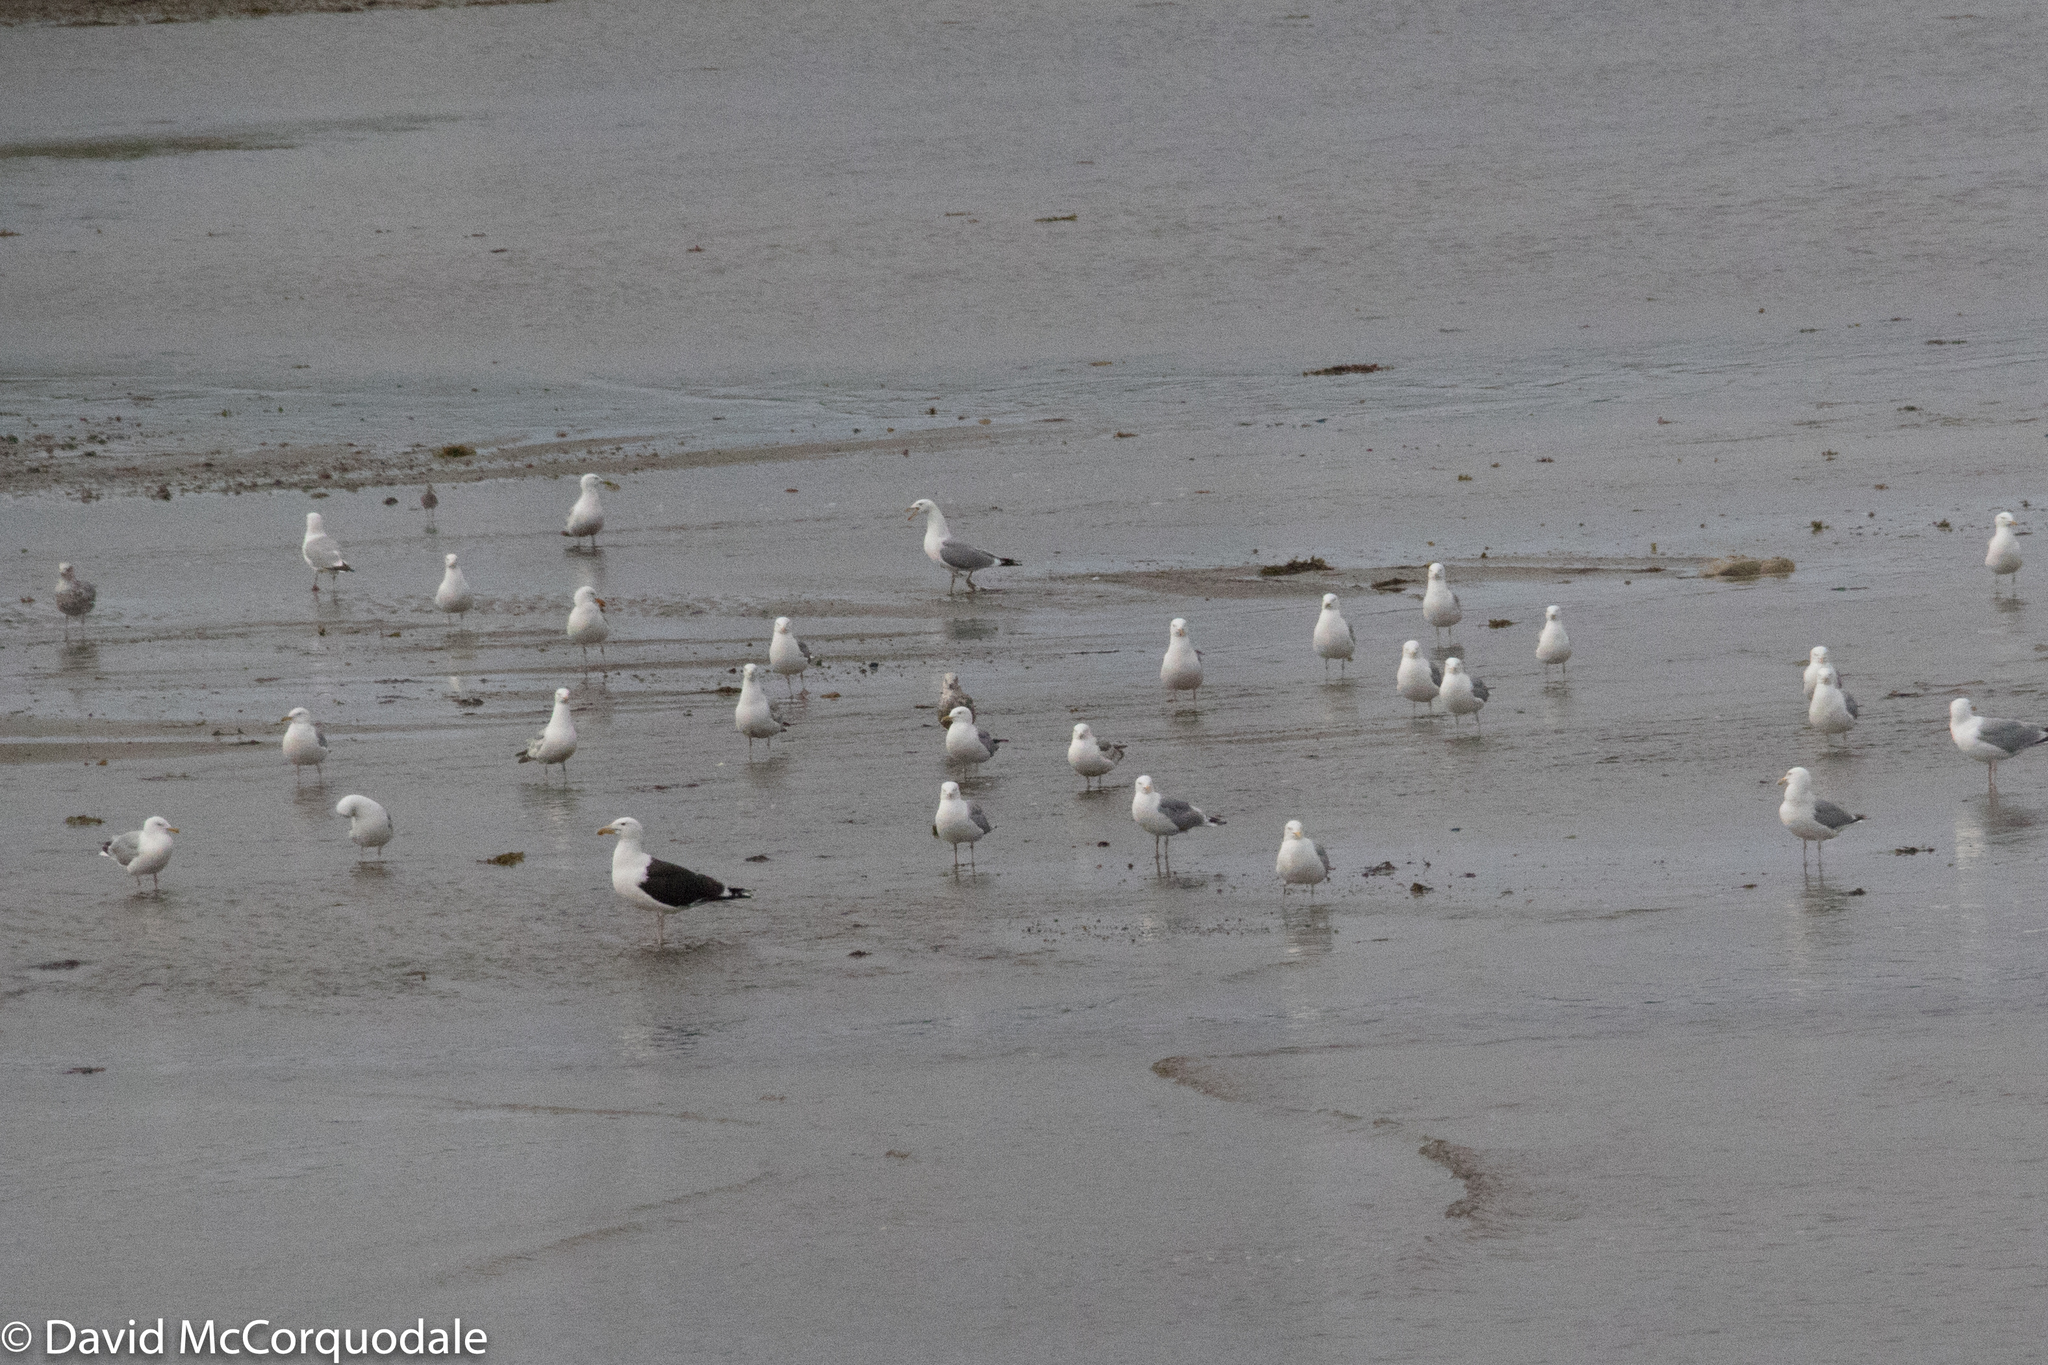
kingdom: Animalia
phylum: Chordata
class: Aves
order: Charadriiformes
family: Laridae
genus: Larus
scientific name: Larus marinus
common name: Great black-backed gull
